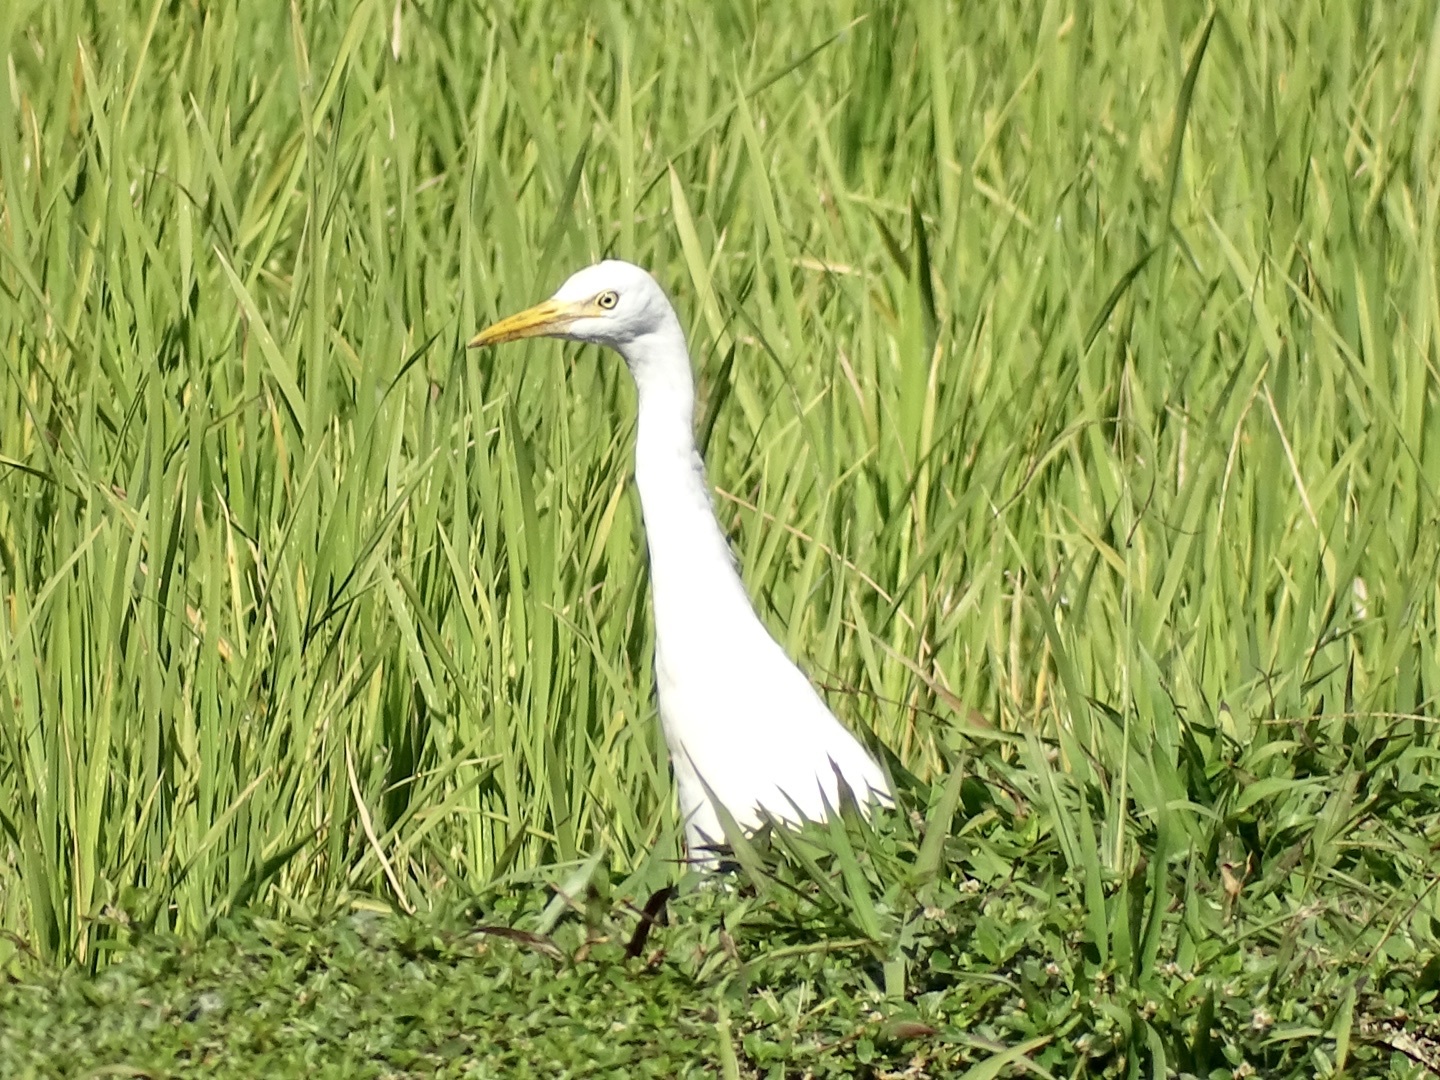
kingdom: Animalia
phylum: Chordata
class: Aves
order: Pelecaniformes
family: Ardeidae
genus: Bubulcus
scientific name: Bubulcus coromandus
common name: Eastern cattle egret
